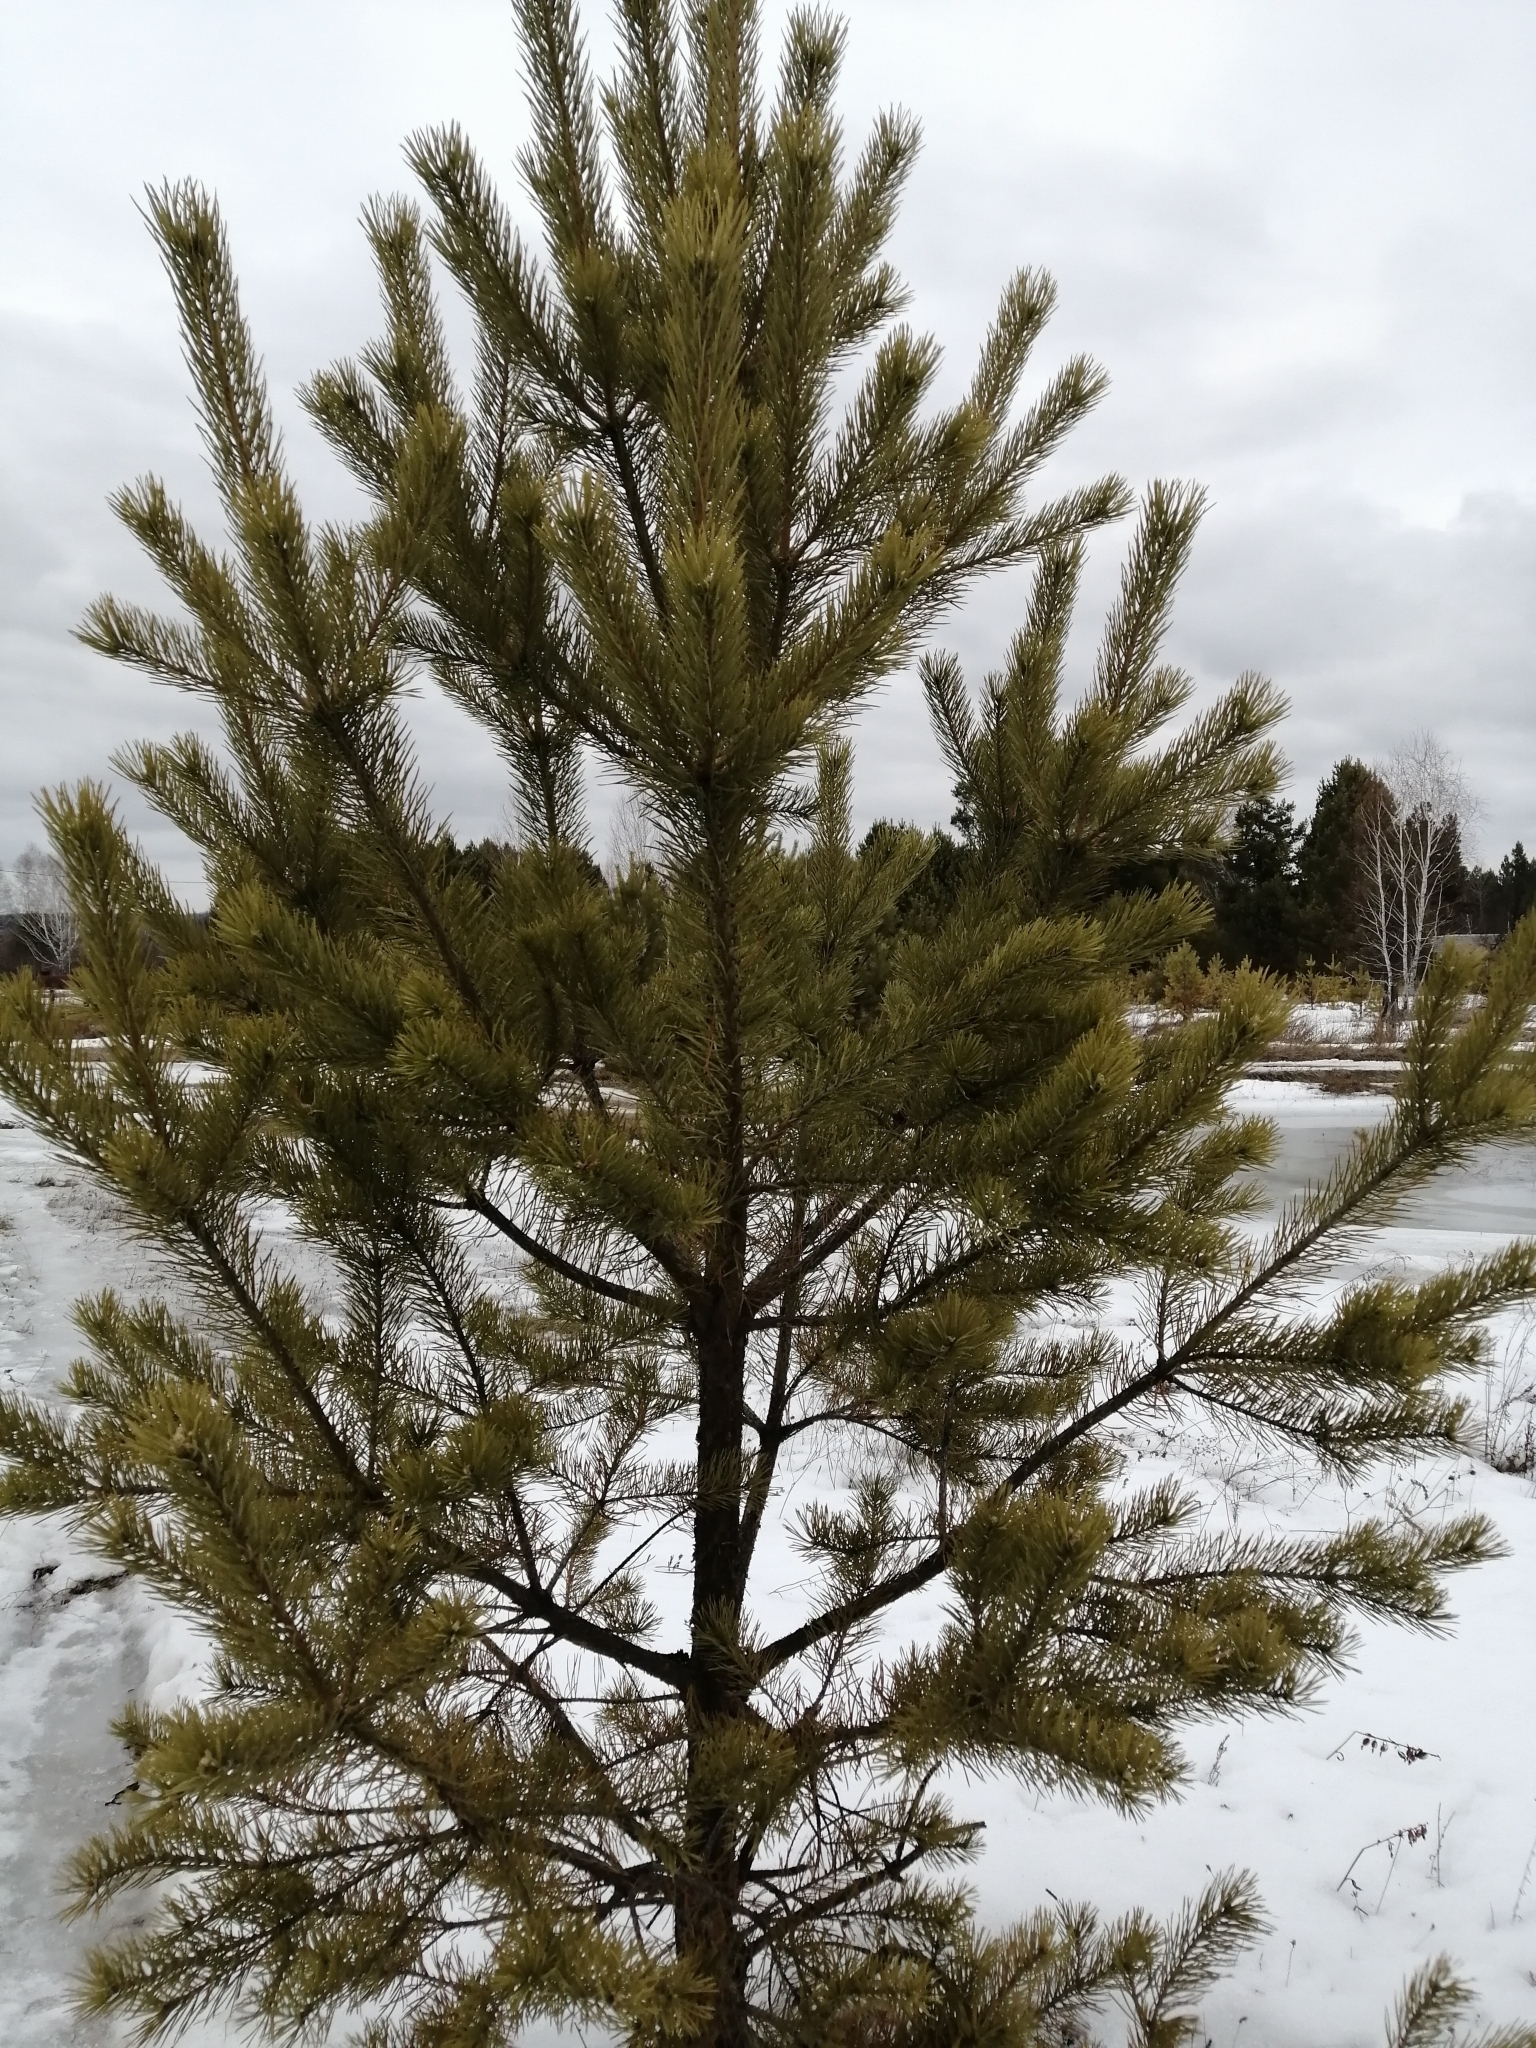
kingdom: Plantae
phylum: Tracheophyta
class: Pinopsida
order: Pinales
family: Pinaceae
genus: Pinus
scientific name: Pinus sylvestris
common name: Scots pine
